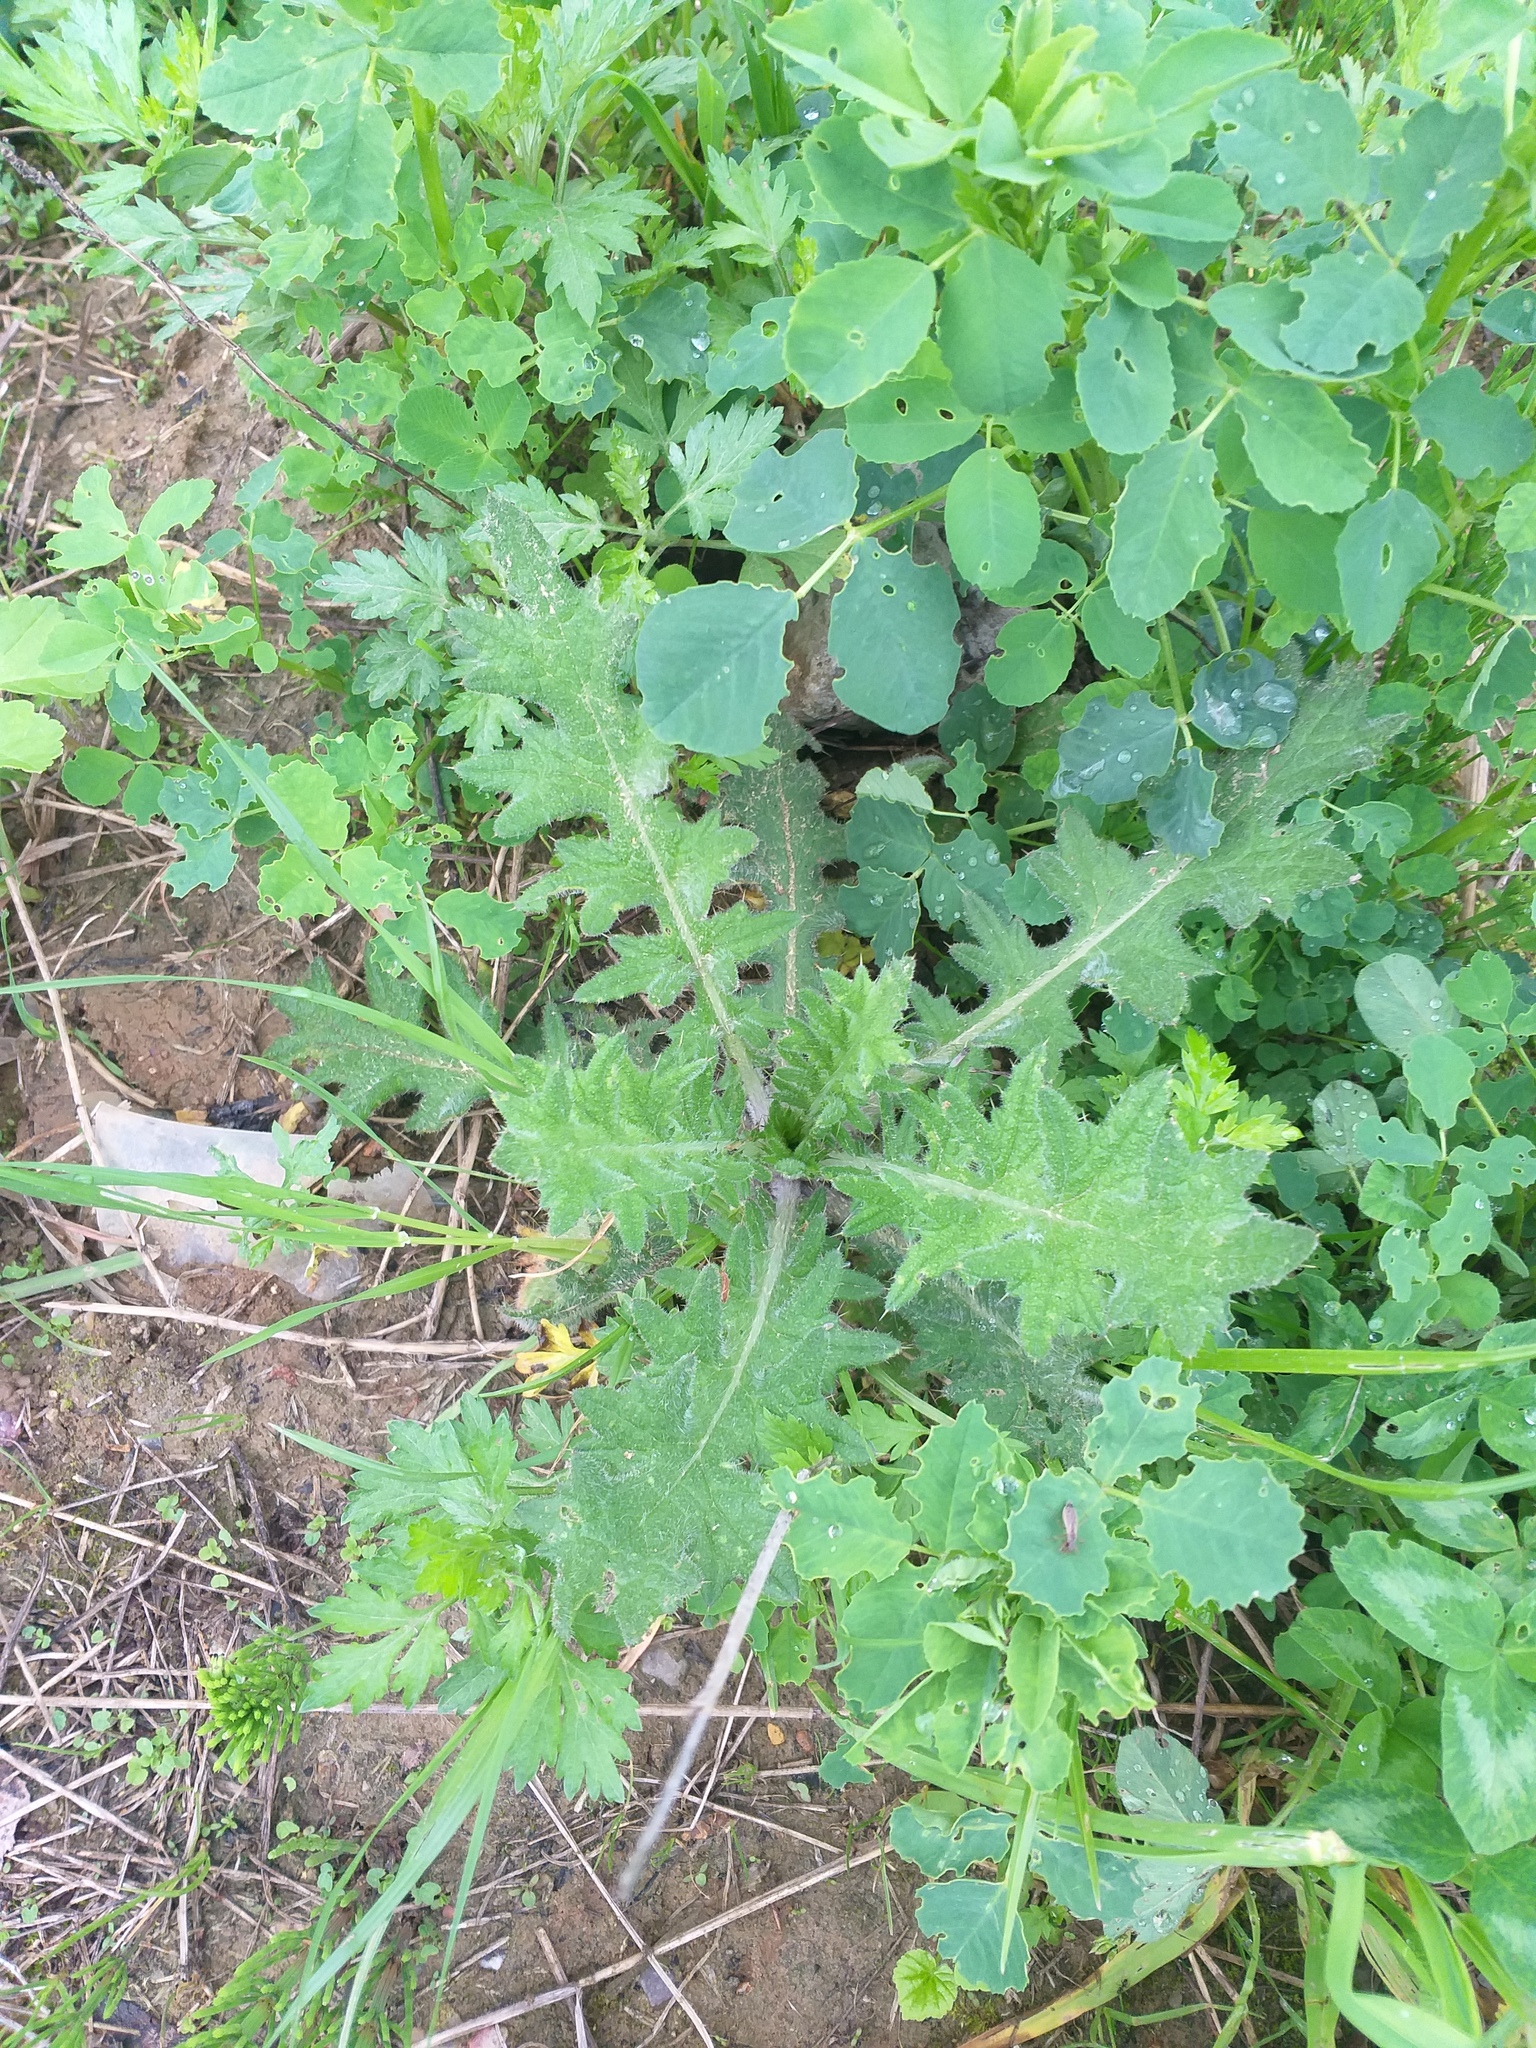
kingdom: Plantae
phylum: Tracheophyta
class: Magnoliopsida
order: Asterales
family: Asteraceae
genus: Cirsium
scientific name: Cirsium vulgare
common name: Bull thistle
